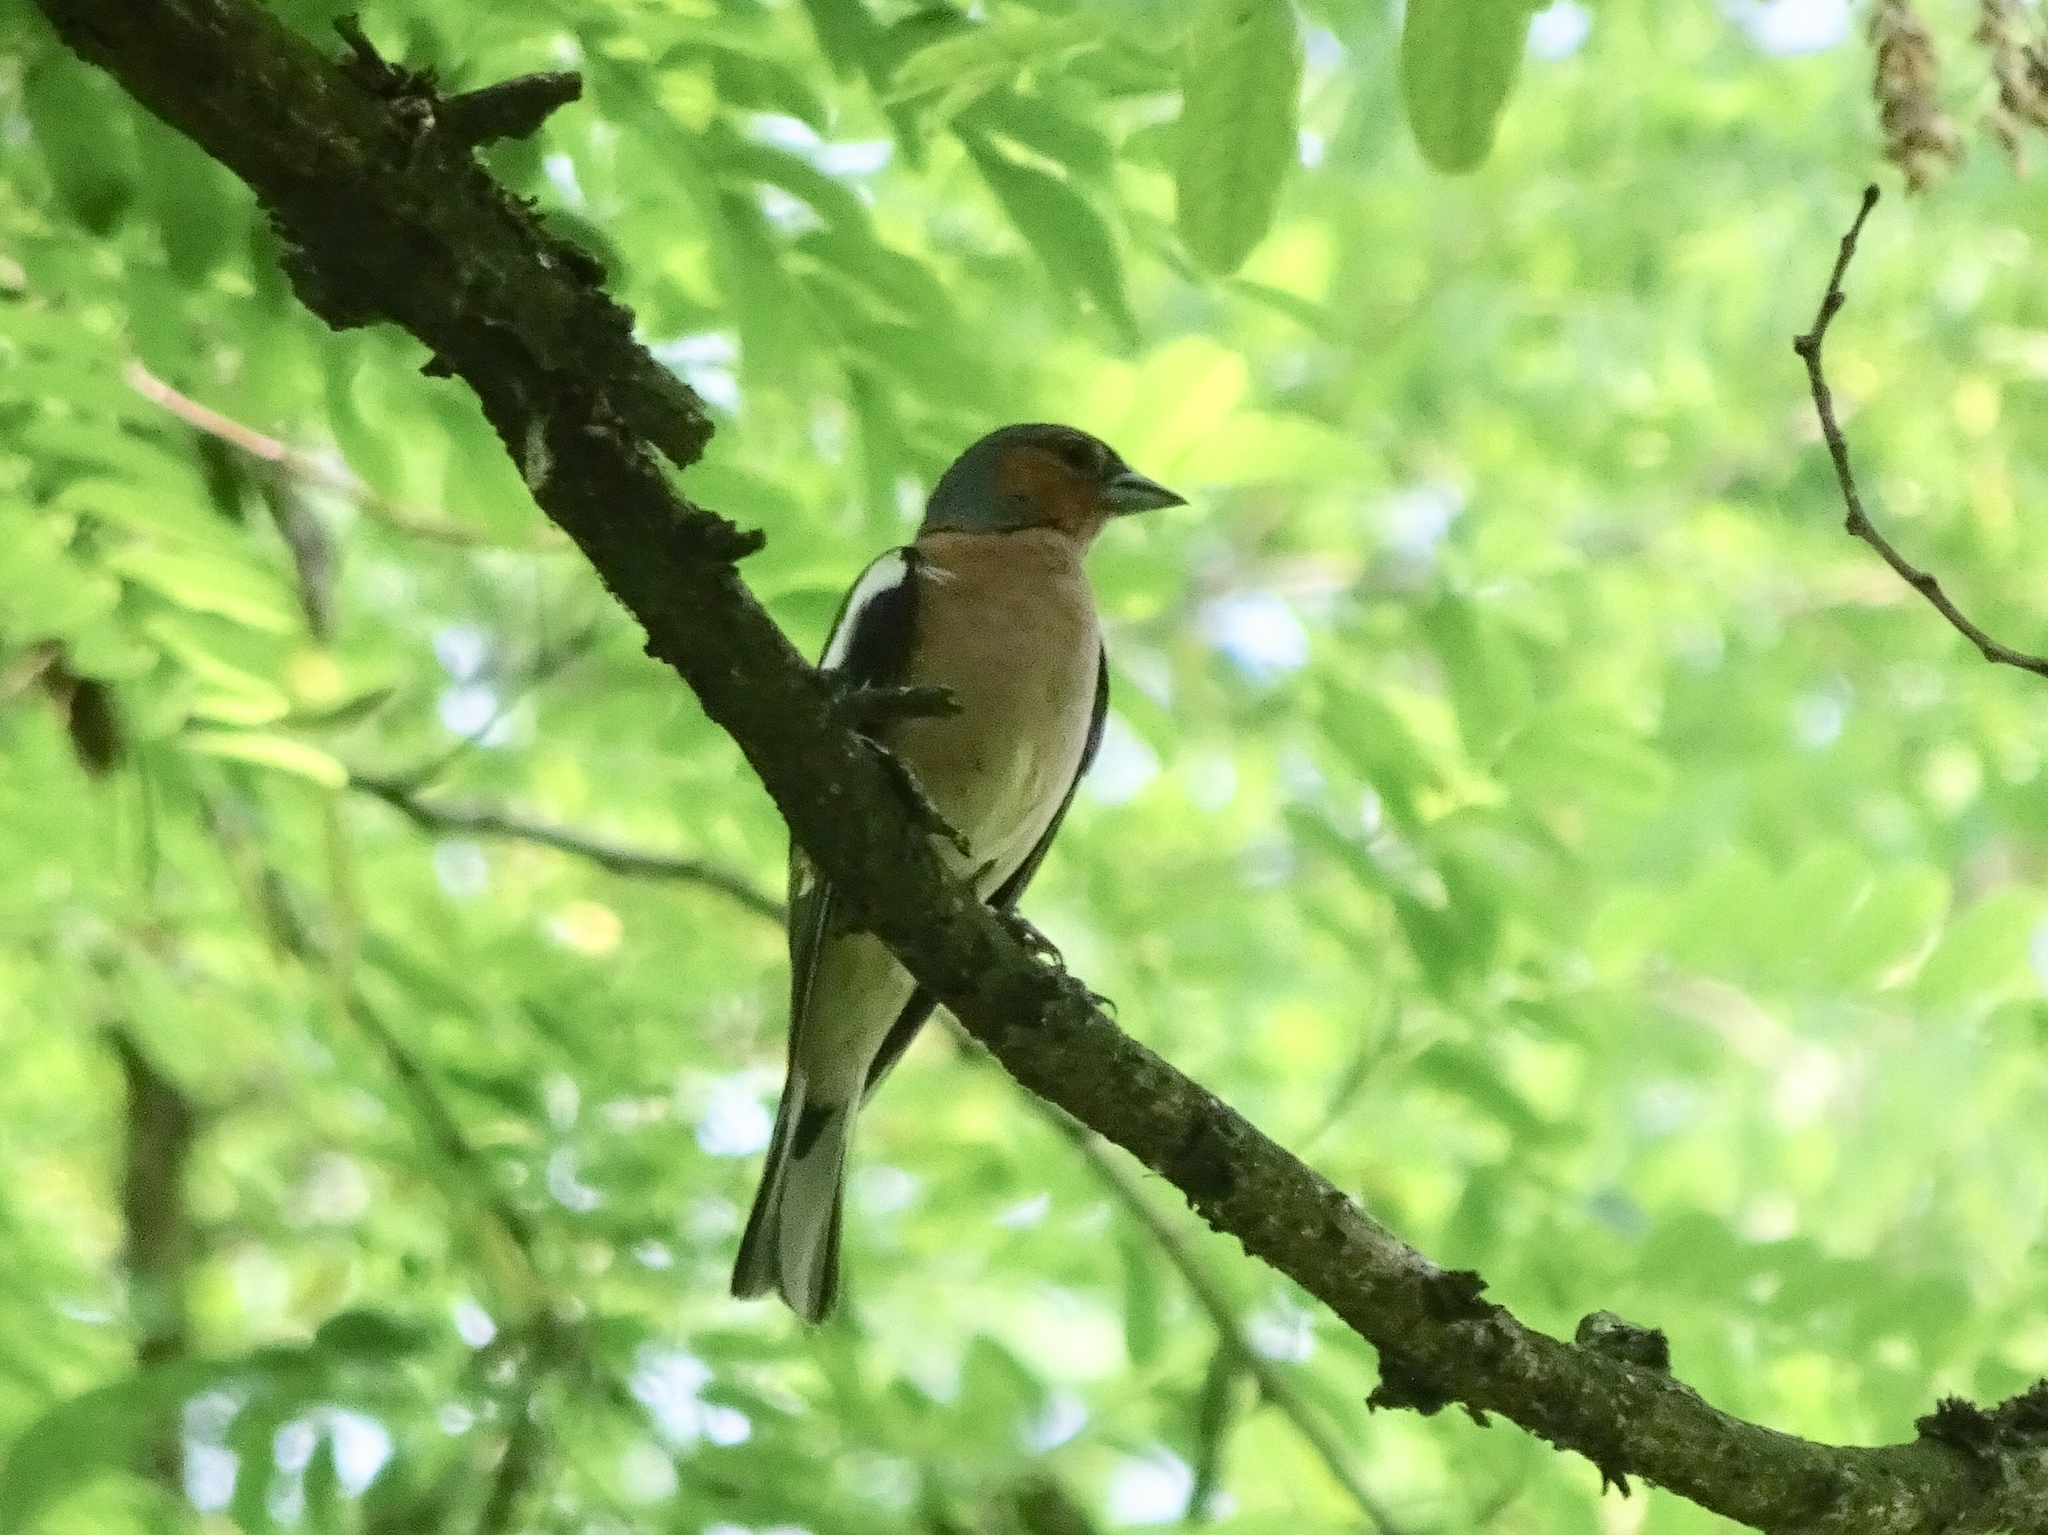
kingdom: Animalia
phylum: Chordata
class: Aves
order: Passeriformes
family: Fringillidae
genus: Fringilla
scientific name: Fringilla coelebs
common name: Common chaffinch
